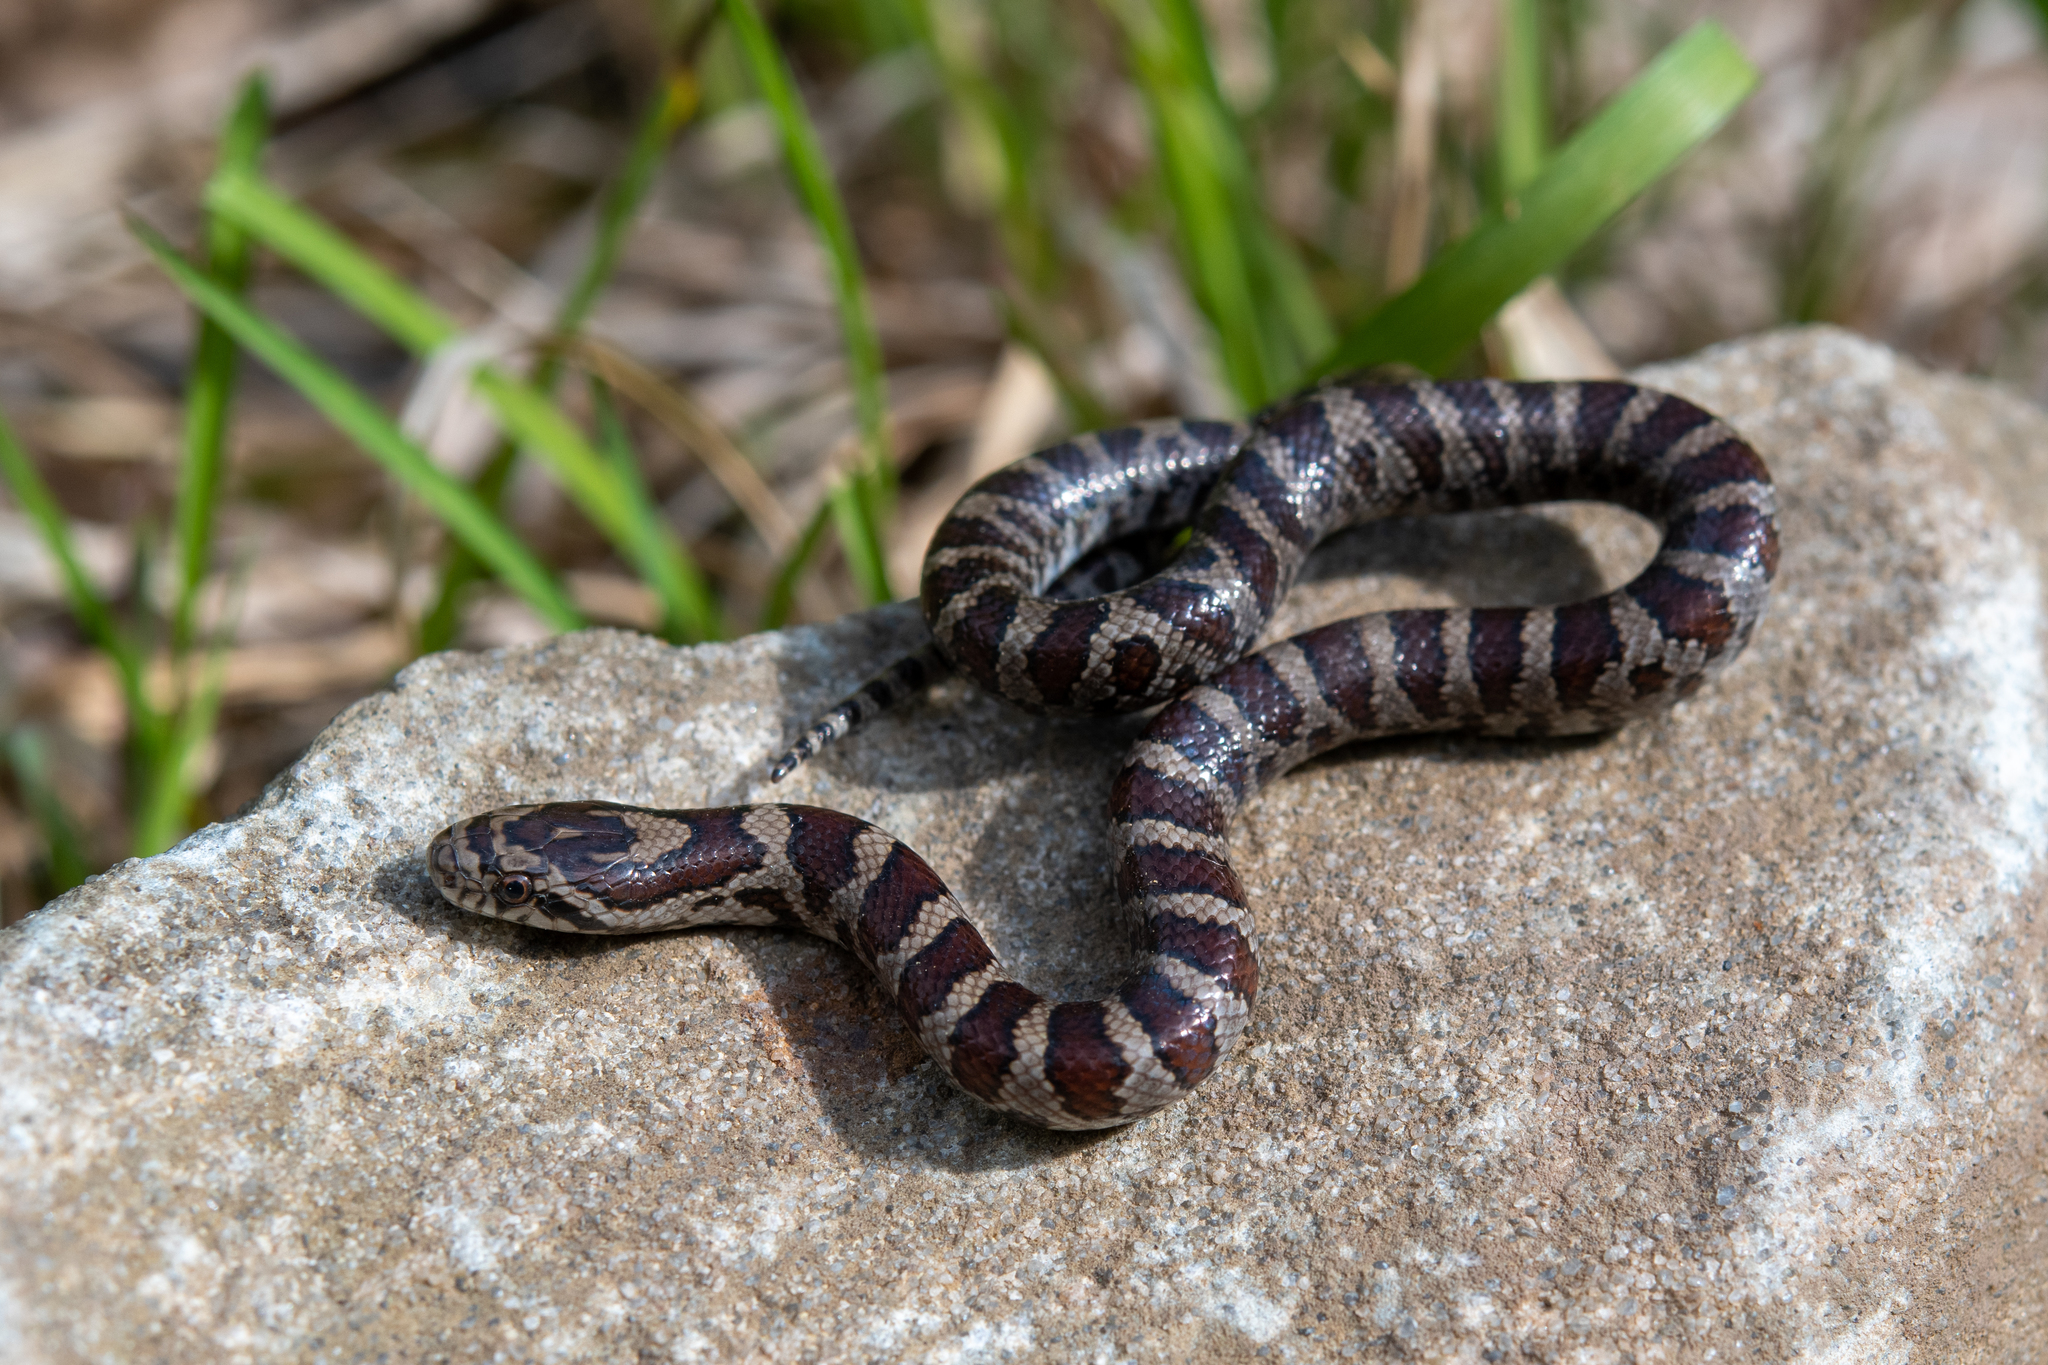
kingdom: Animalia
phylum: Chordata
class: Squamata
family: Colubridae
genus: Lampropeltis
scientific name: Lampropeltis triangulum
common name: Eastern milksnake
